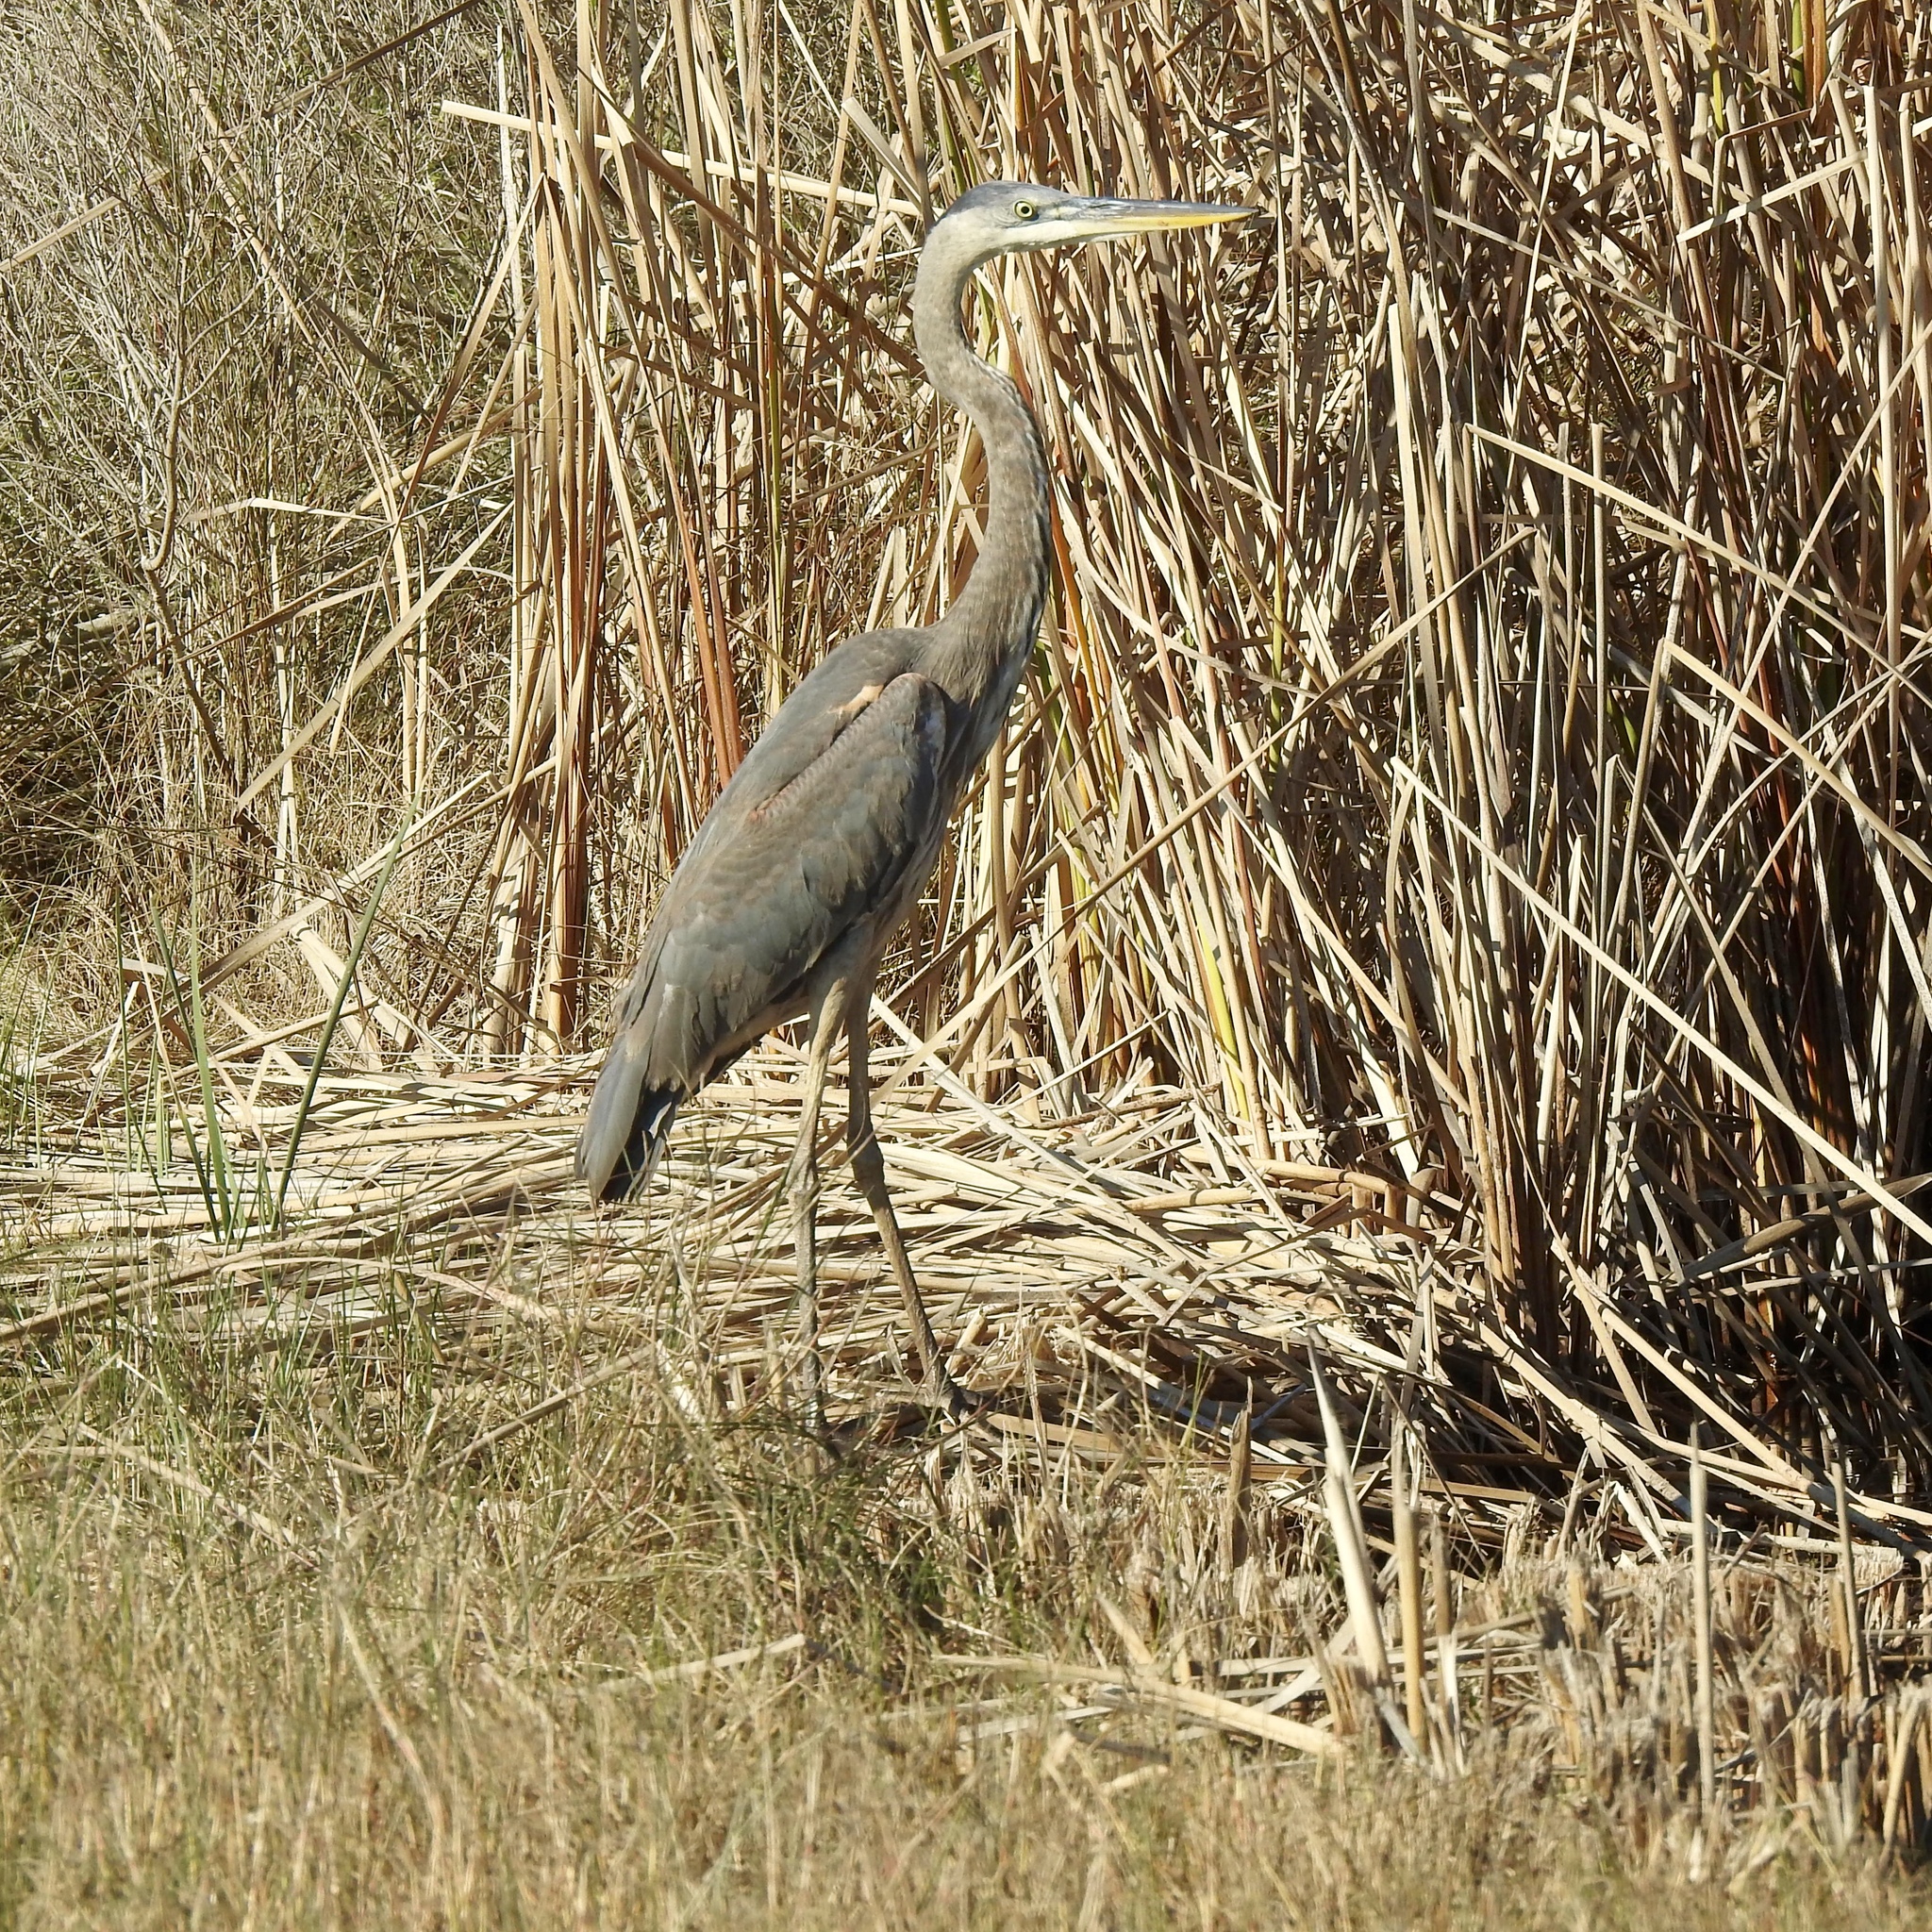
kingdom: Animalia
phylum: Chordata
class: Aves
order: Pelecaniformes
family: Ardeidae
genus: Ardea
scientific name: Ardea herodias
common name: Great blue heron
